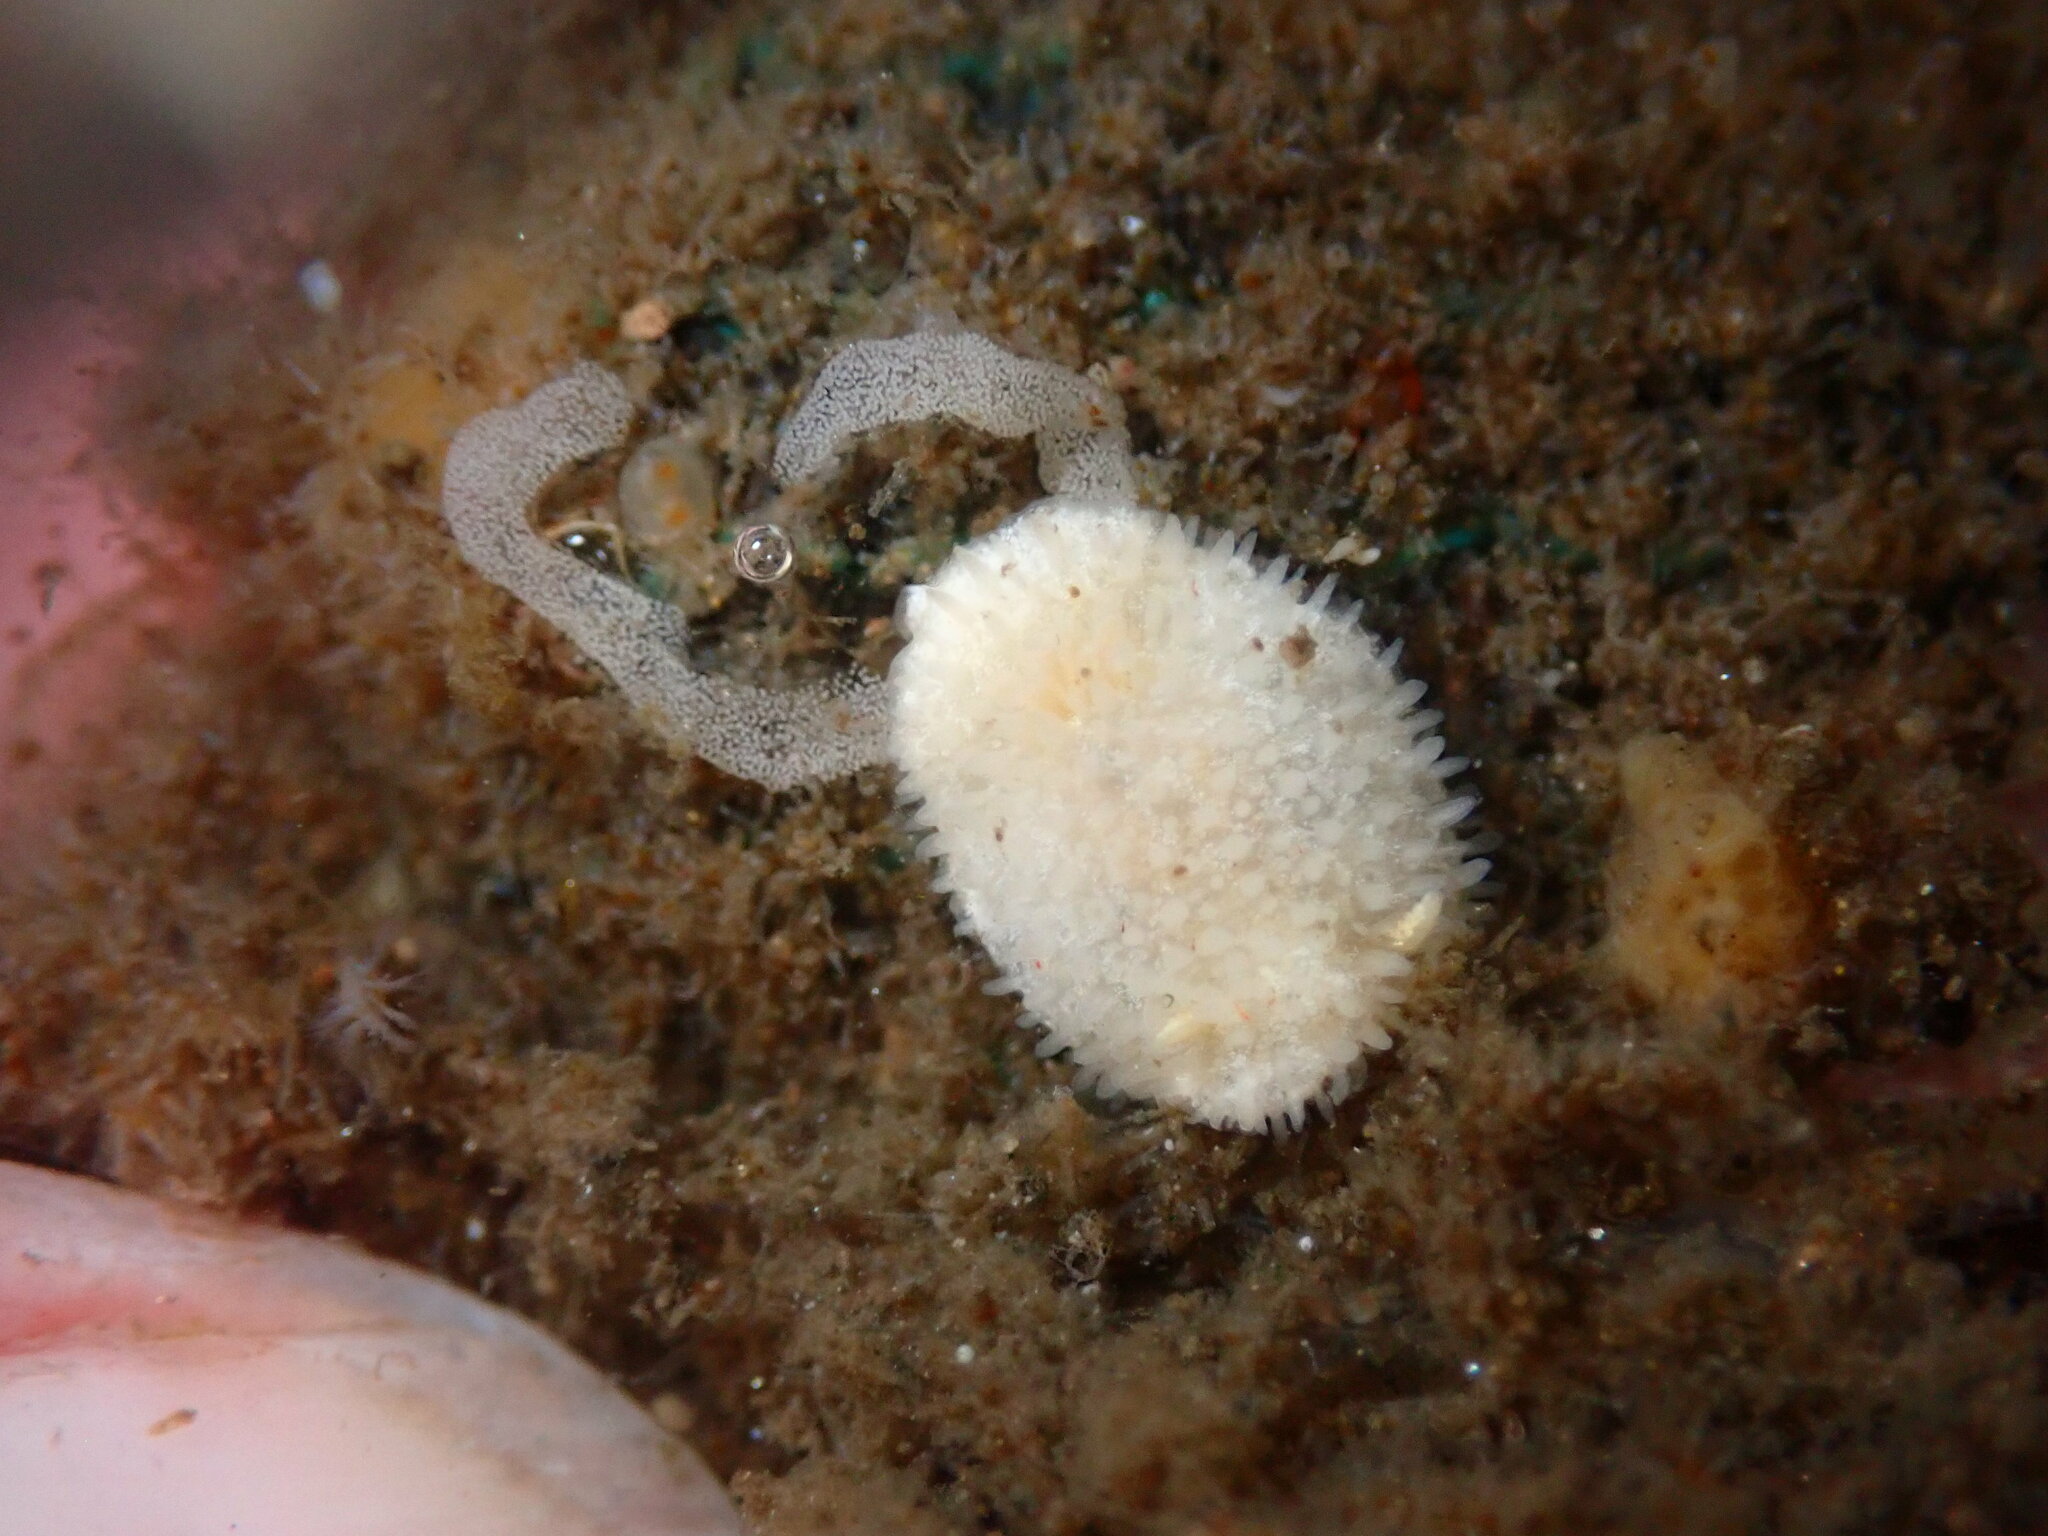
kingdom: Animalia
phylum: Mollusca
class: Gastropoda
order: Nudibranchia
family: Calycidorididae
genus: Diaphorodoris
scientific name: Diaphorodoris lirulatocauda
